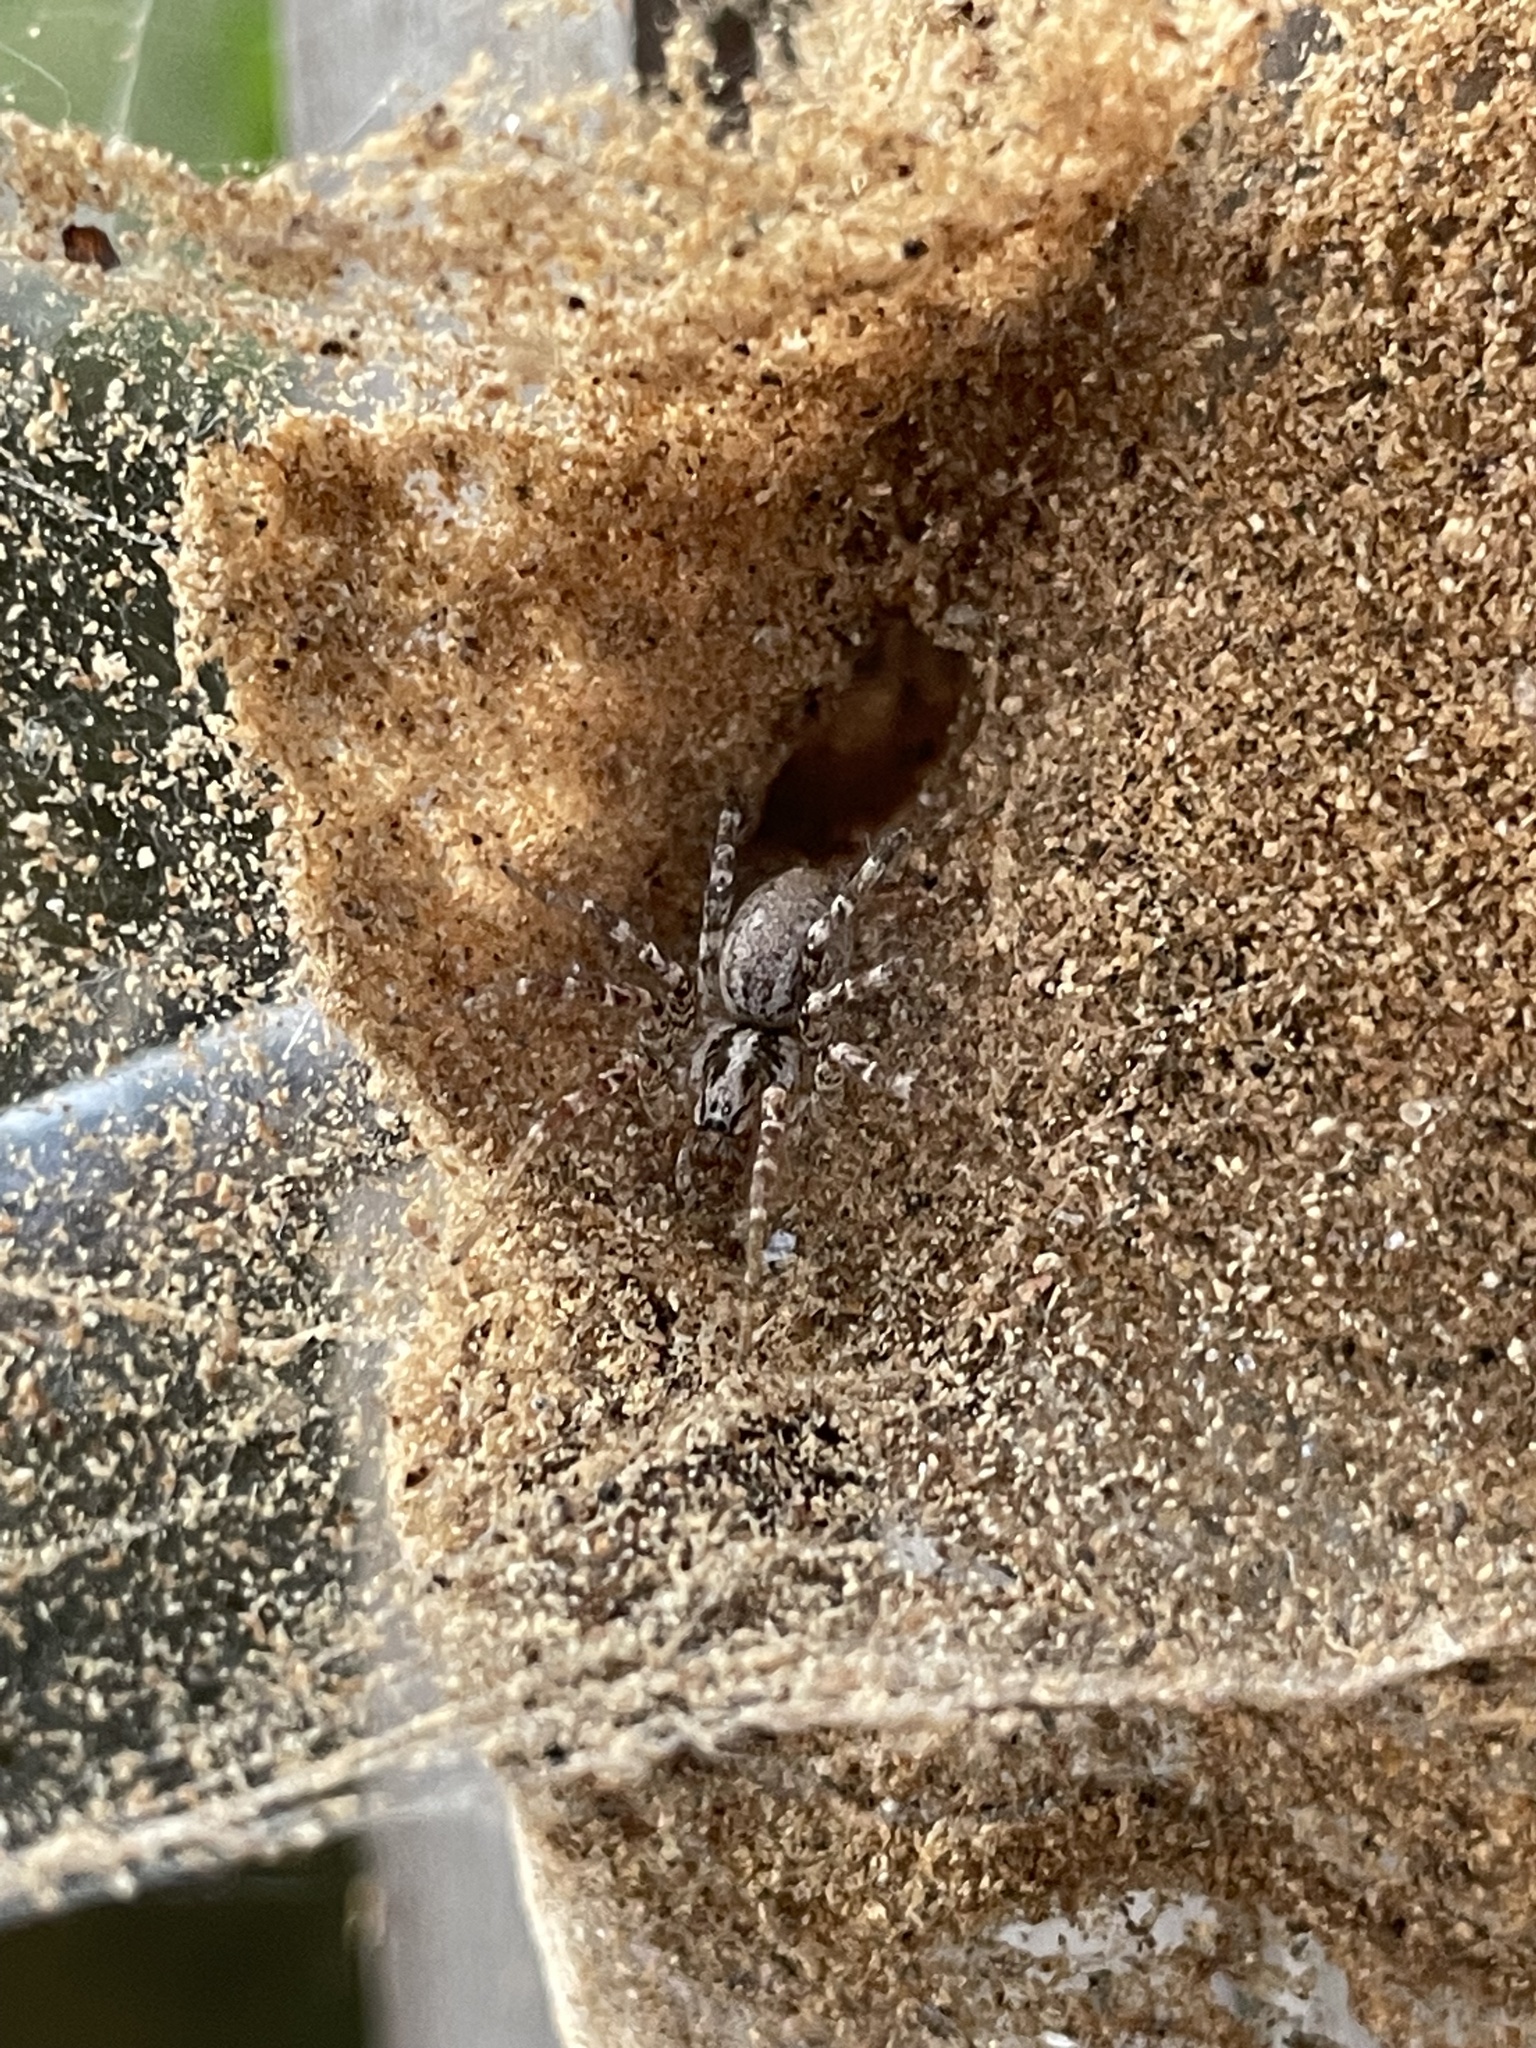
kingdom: Animalia
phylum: Arthropoda
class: Arachnida
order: Araneae
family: Agelenidae
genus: Barronopsis
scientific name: Barronopsis texana
